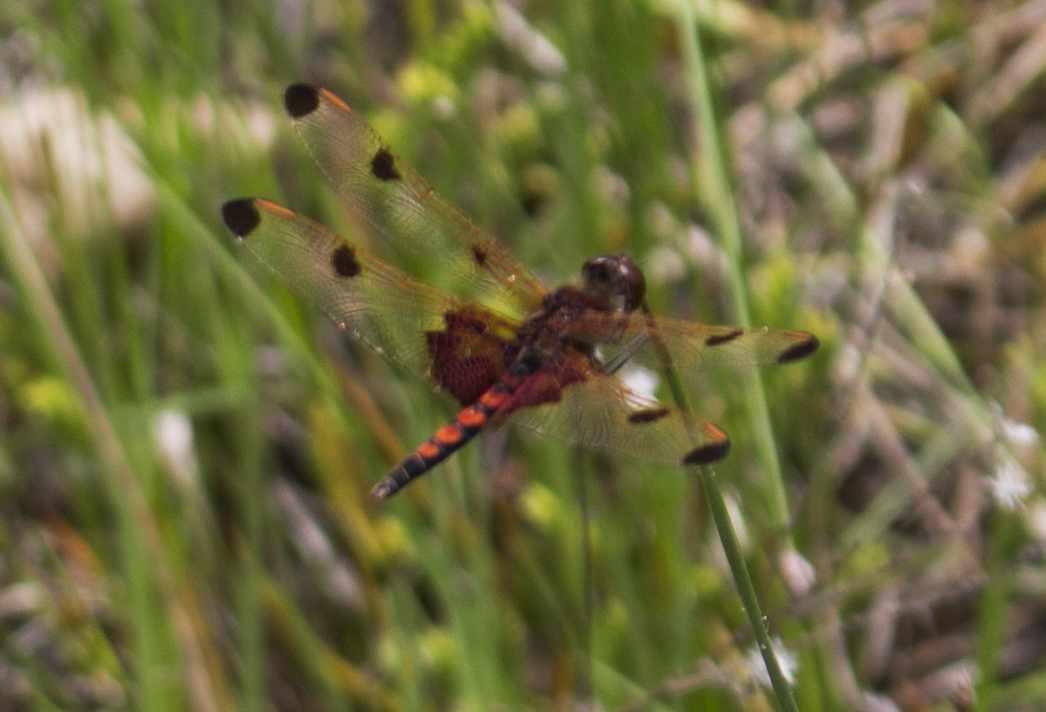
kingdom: Animalia
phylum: Arthropoda
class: Insecta
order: Odonata
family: Libellulidae
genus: Celithemis
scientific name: Celithemis elisa
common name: Calico pennant
